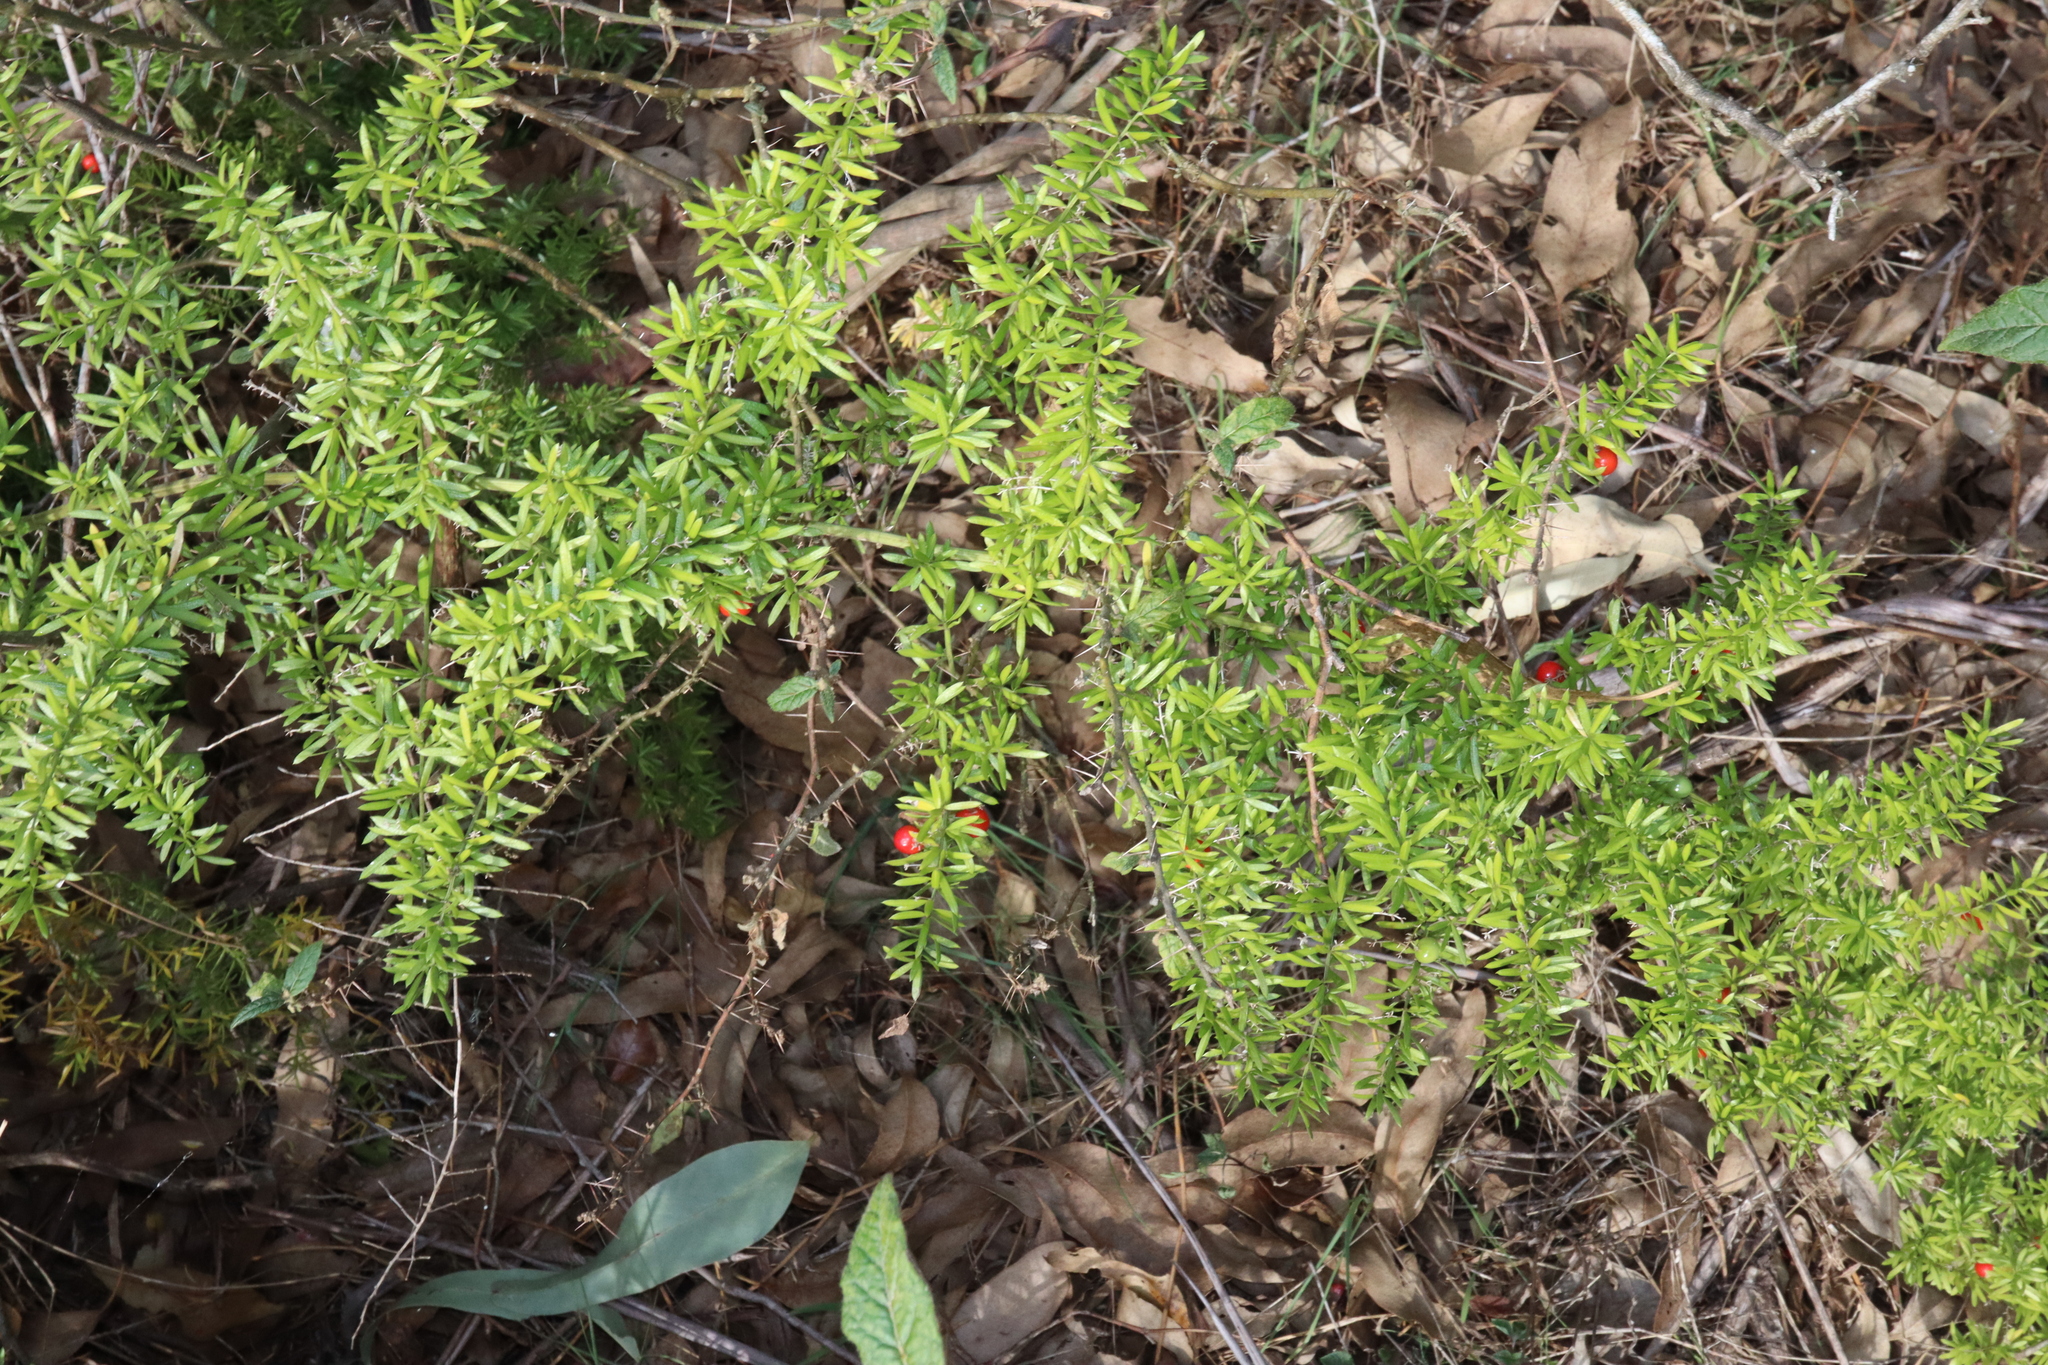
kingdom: Plantae
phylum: Tracheophyta
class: Liliopsida
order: Asparagales
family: Asparagaceae
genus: Asparagus
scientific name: Asparagus aethiopicus
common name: Sprenger's asparagus fern
